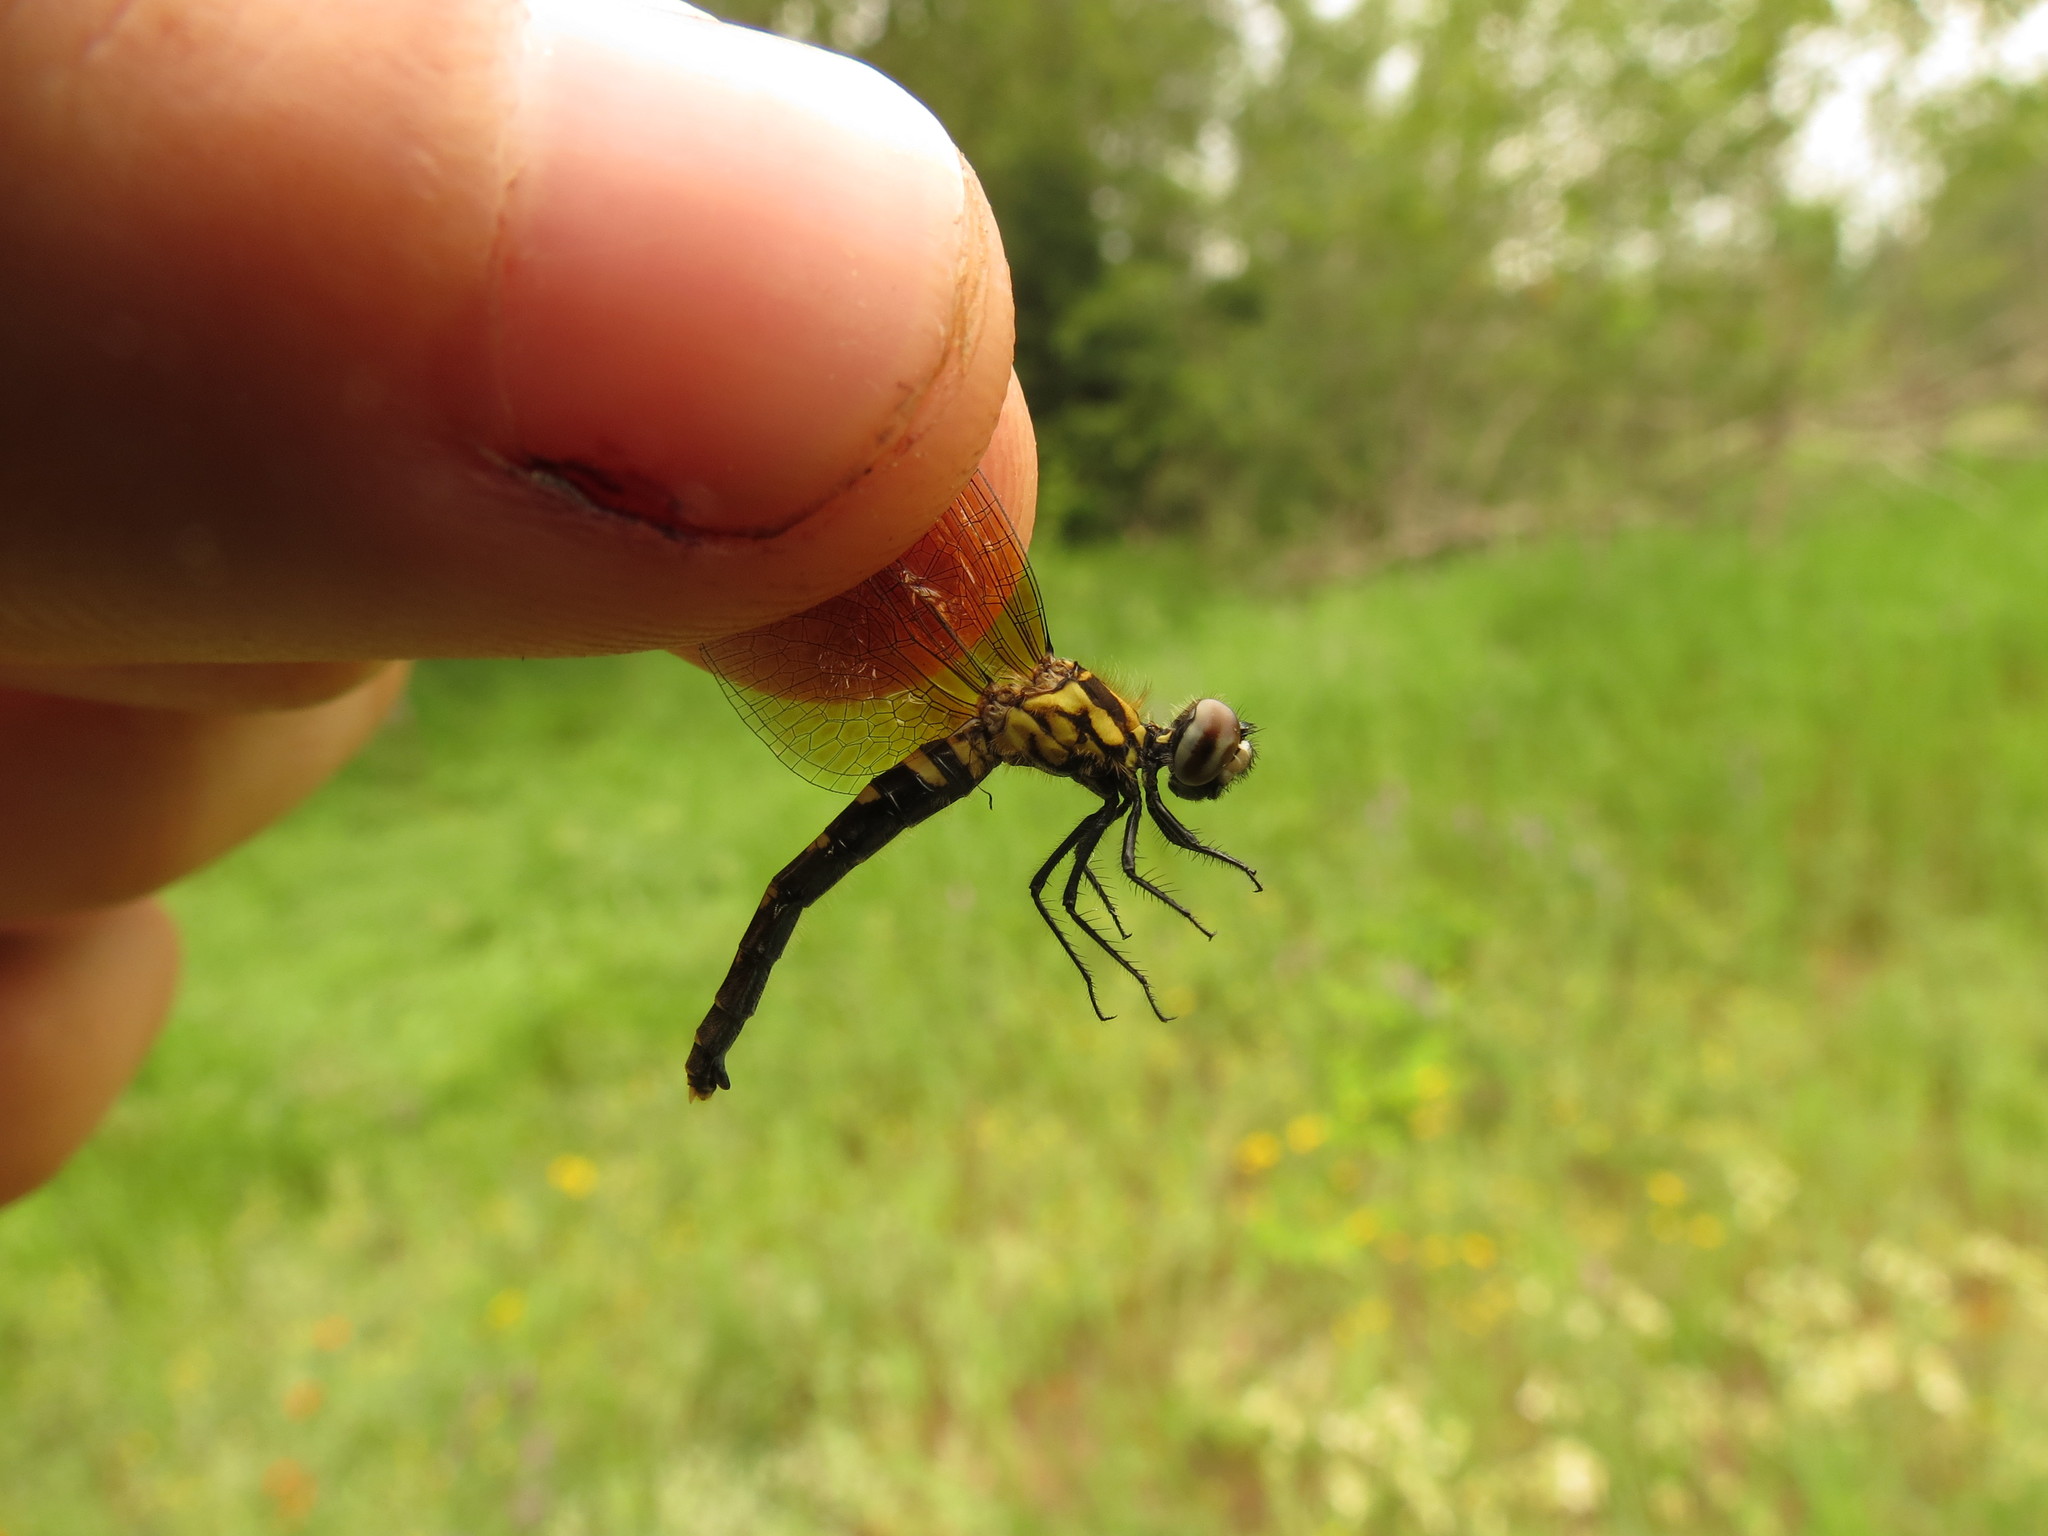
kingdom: Animalia
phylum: Arthropoda
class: Insecta
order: Odonata
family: Libellulidae
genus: Nannothemis
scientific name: Nannothemis bella
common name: Elfin skimmer
